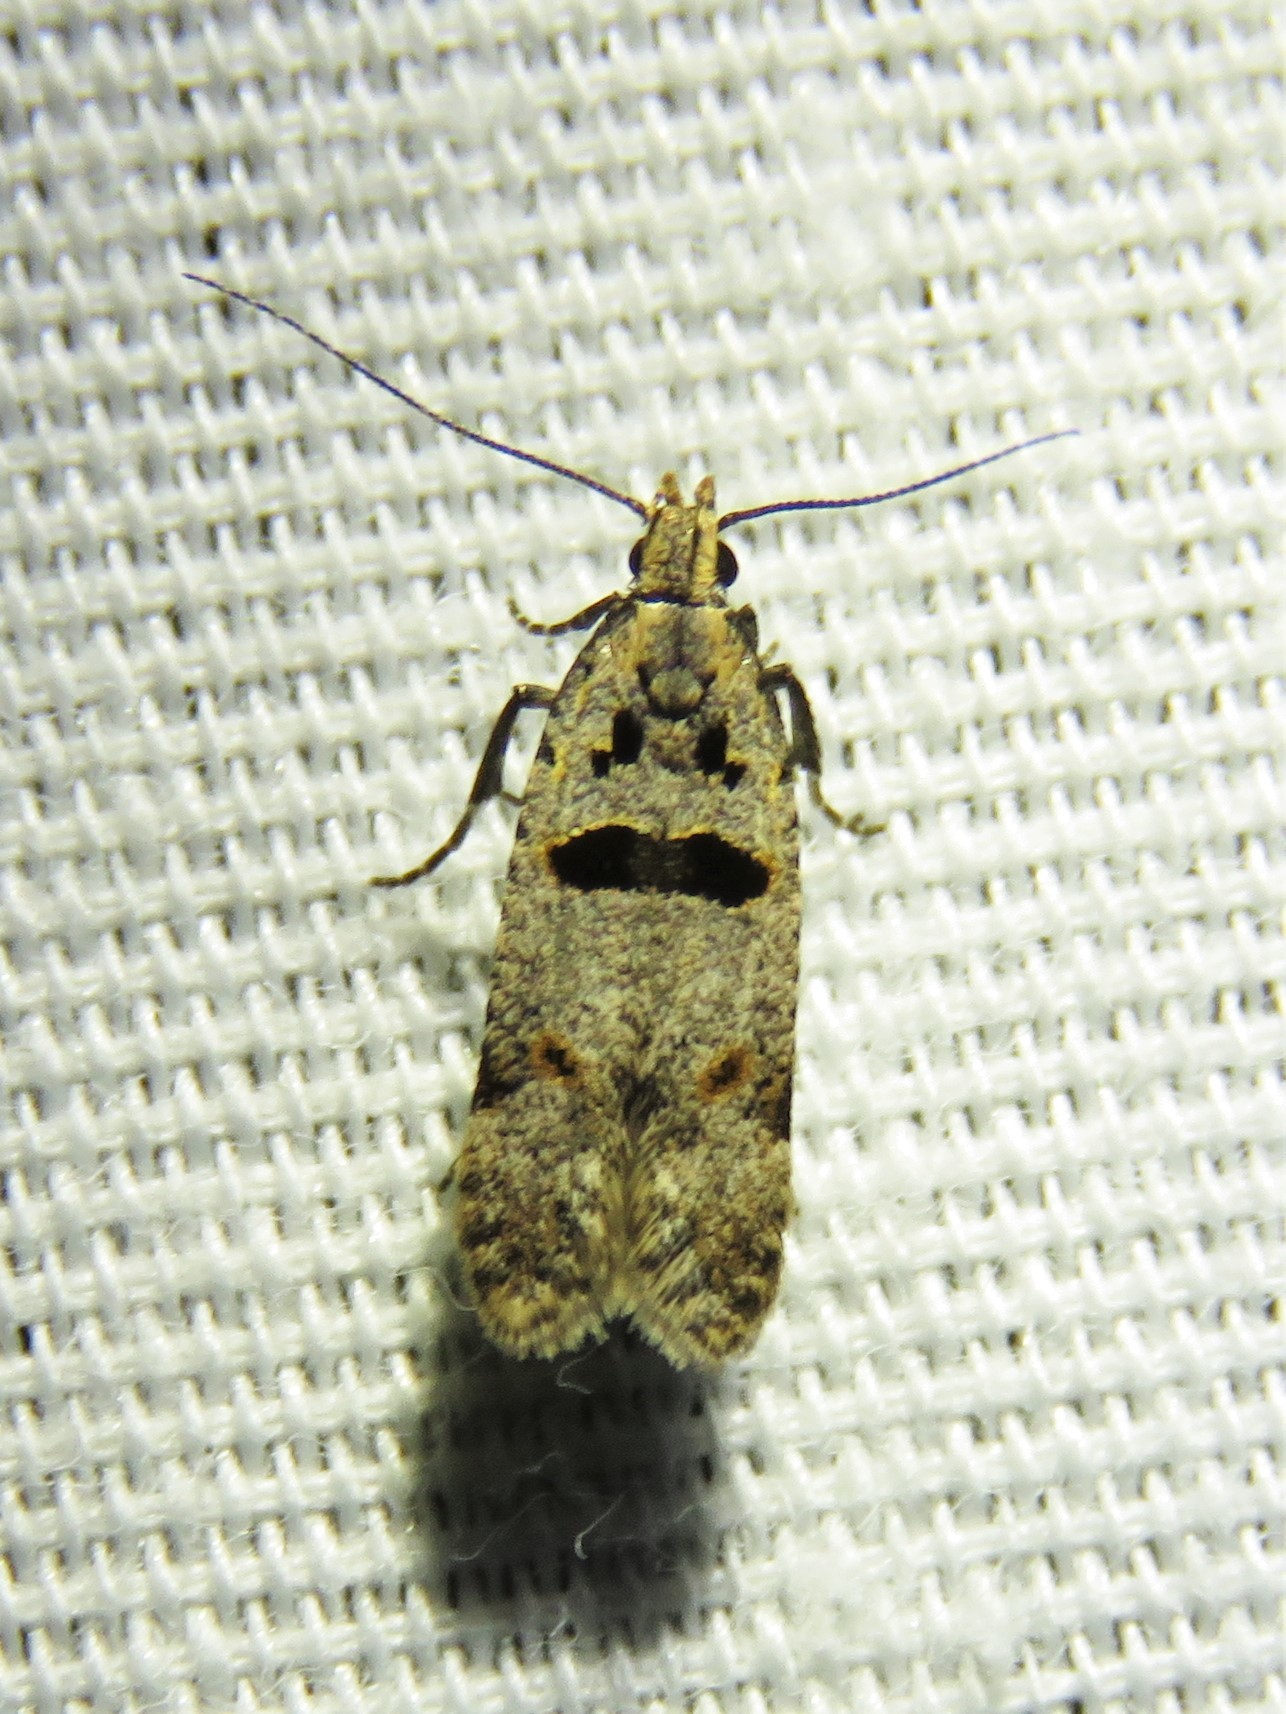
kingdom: Animalia
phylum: Arthropoda
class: Insecta
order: Lepidoptera
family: Gelechiidae
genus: Deltophora
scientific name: Deltophora glandiferella
